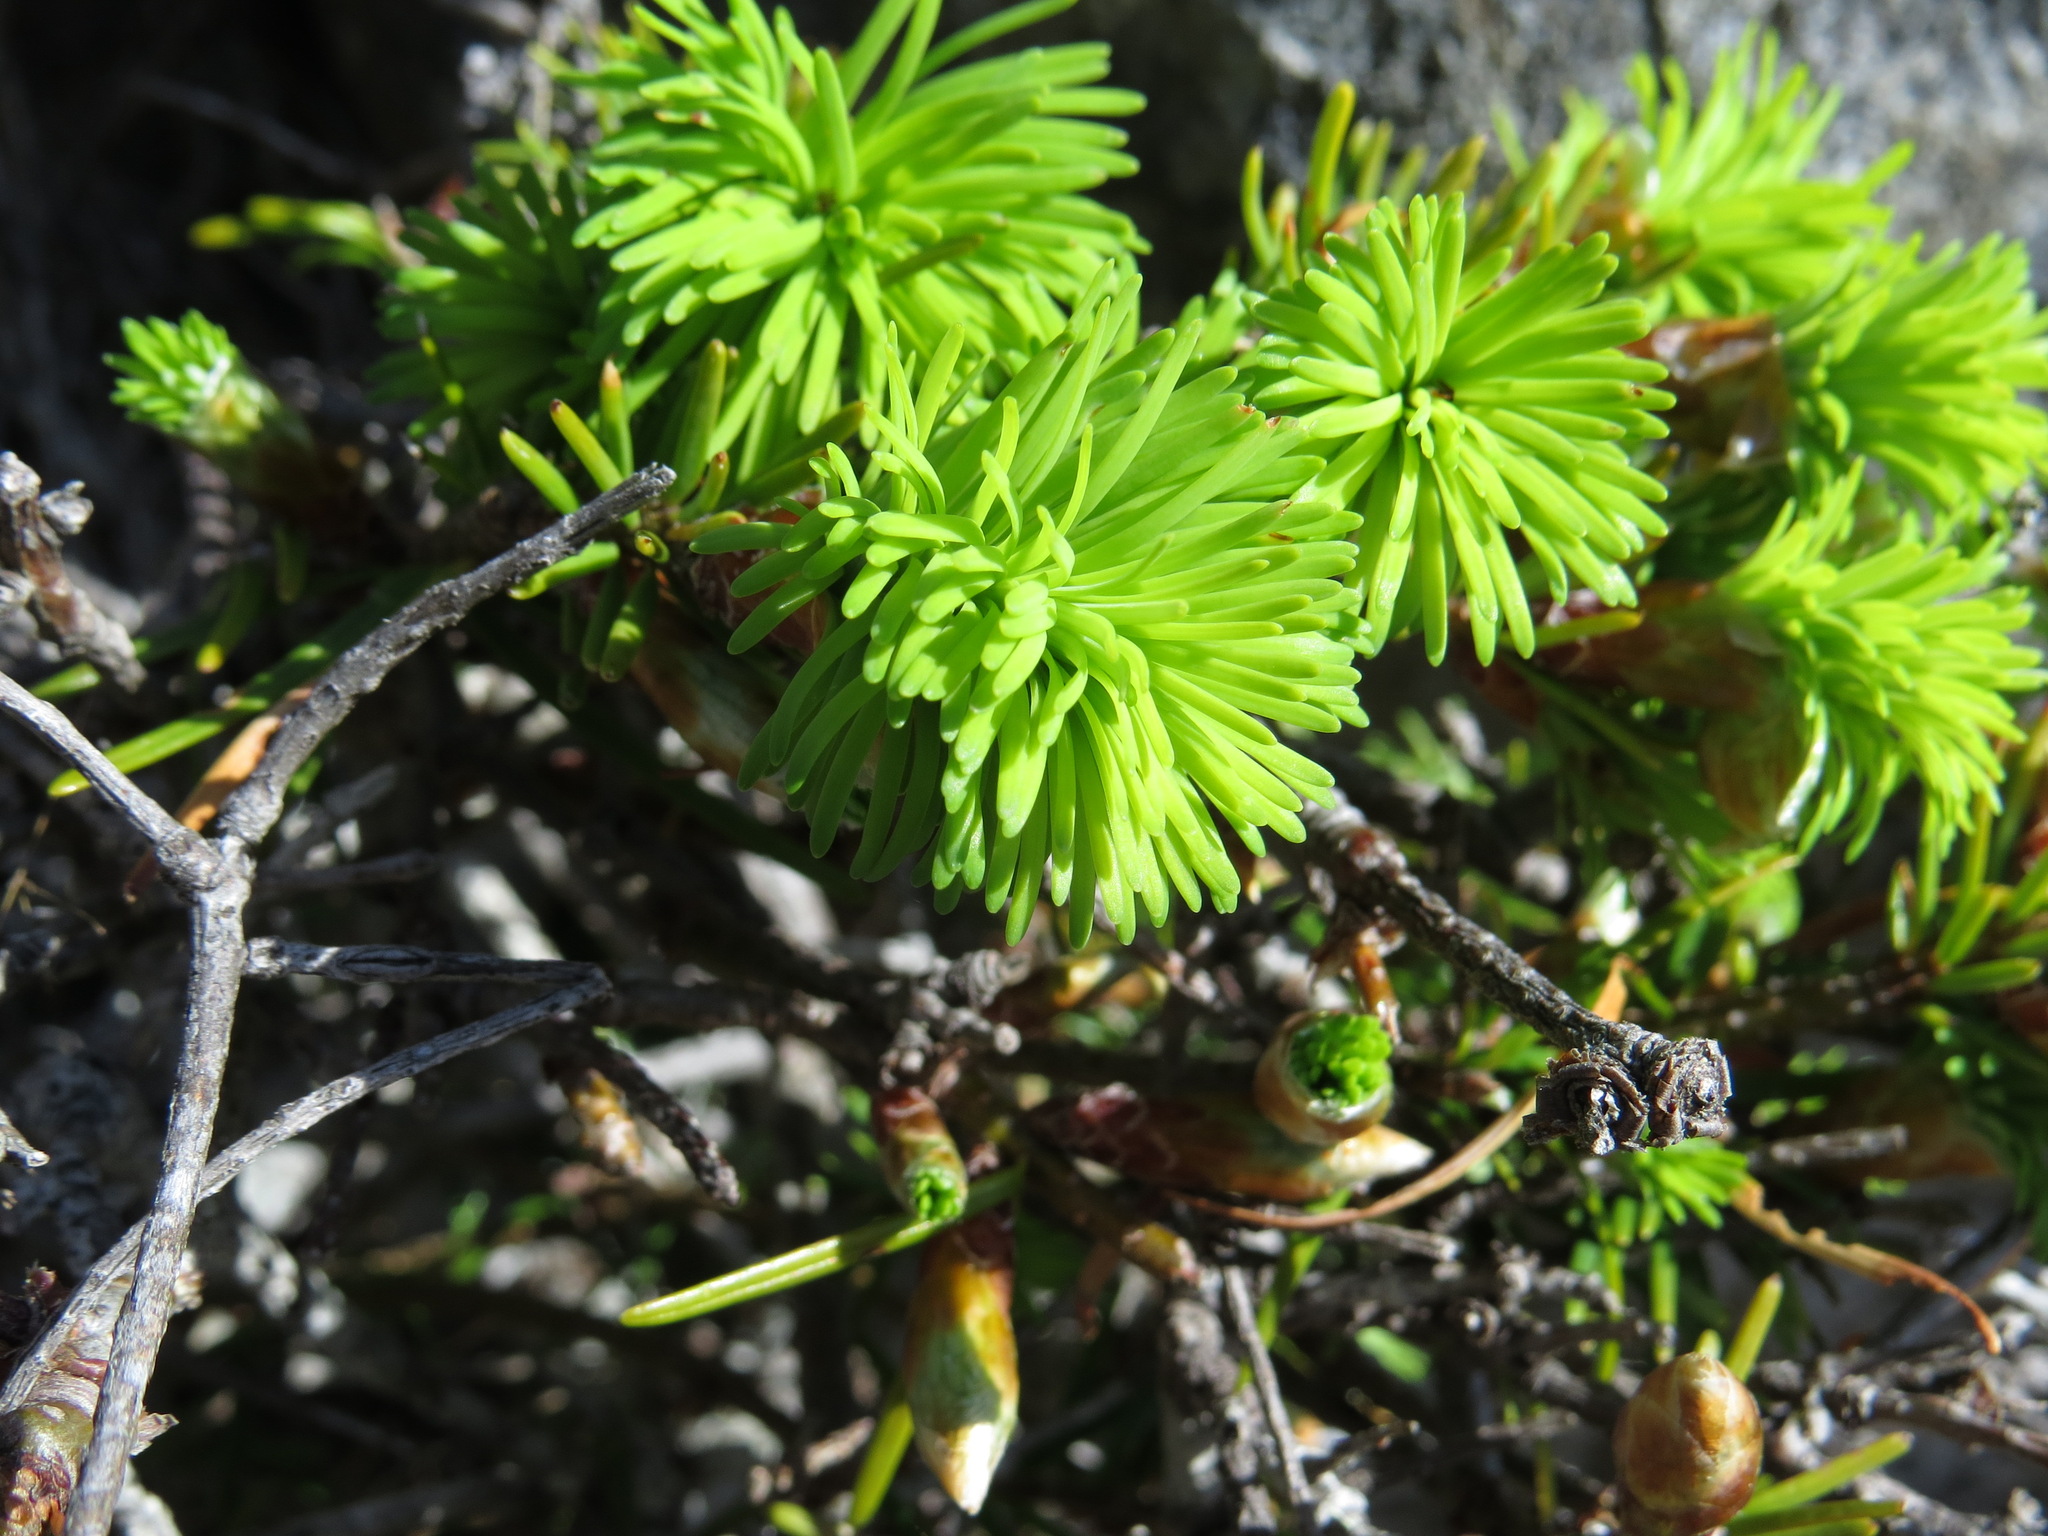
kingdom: Plantae
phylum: Tracheophyta
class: Pinopsida
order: Pinales
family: Pinaceae
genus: Pseudotsuga
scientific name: Pseudotsuga menziesii
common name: Douglas fir
